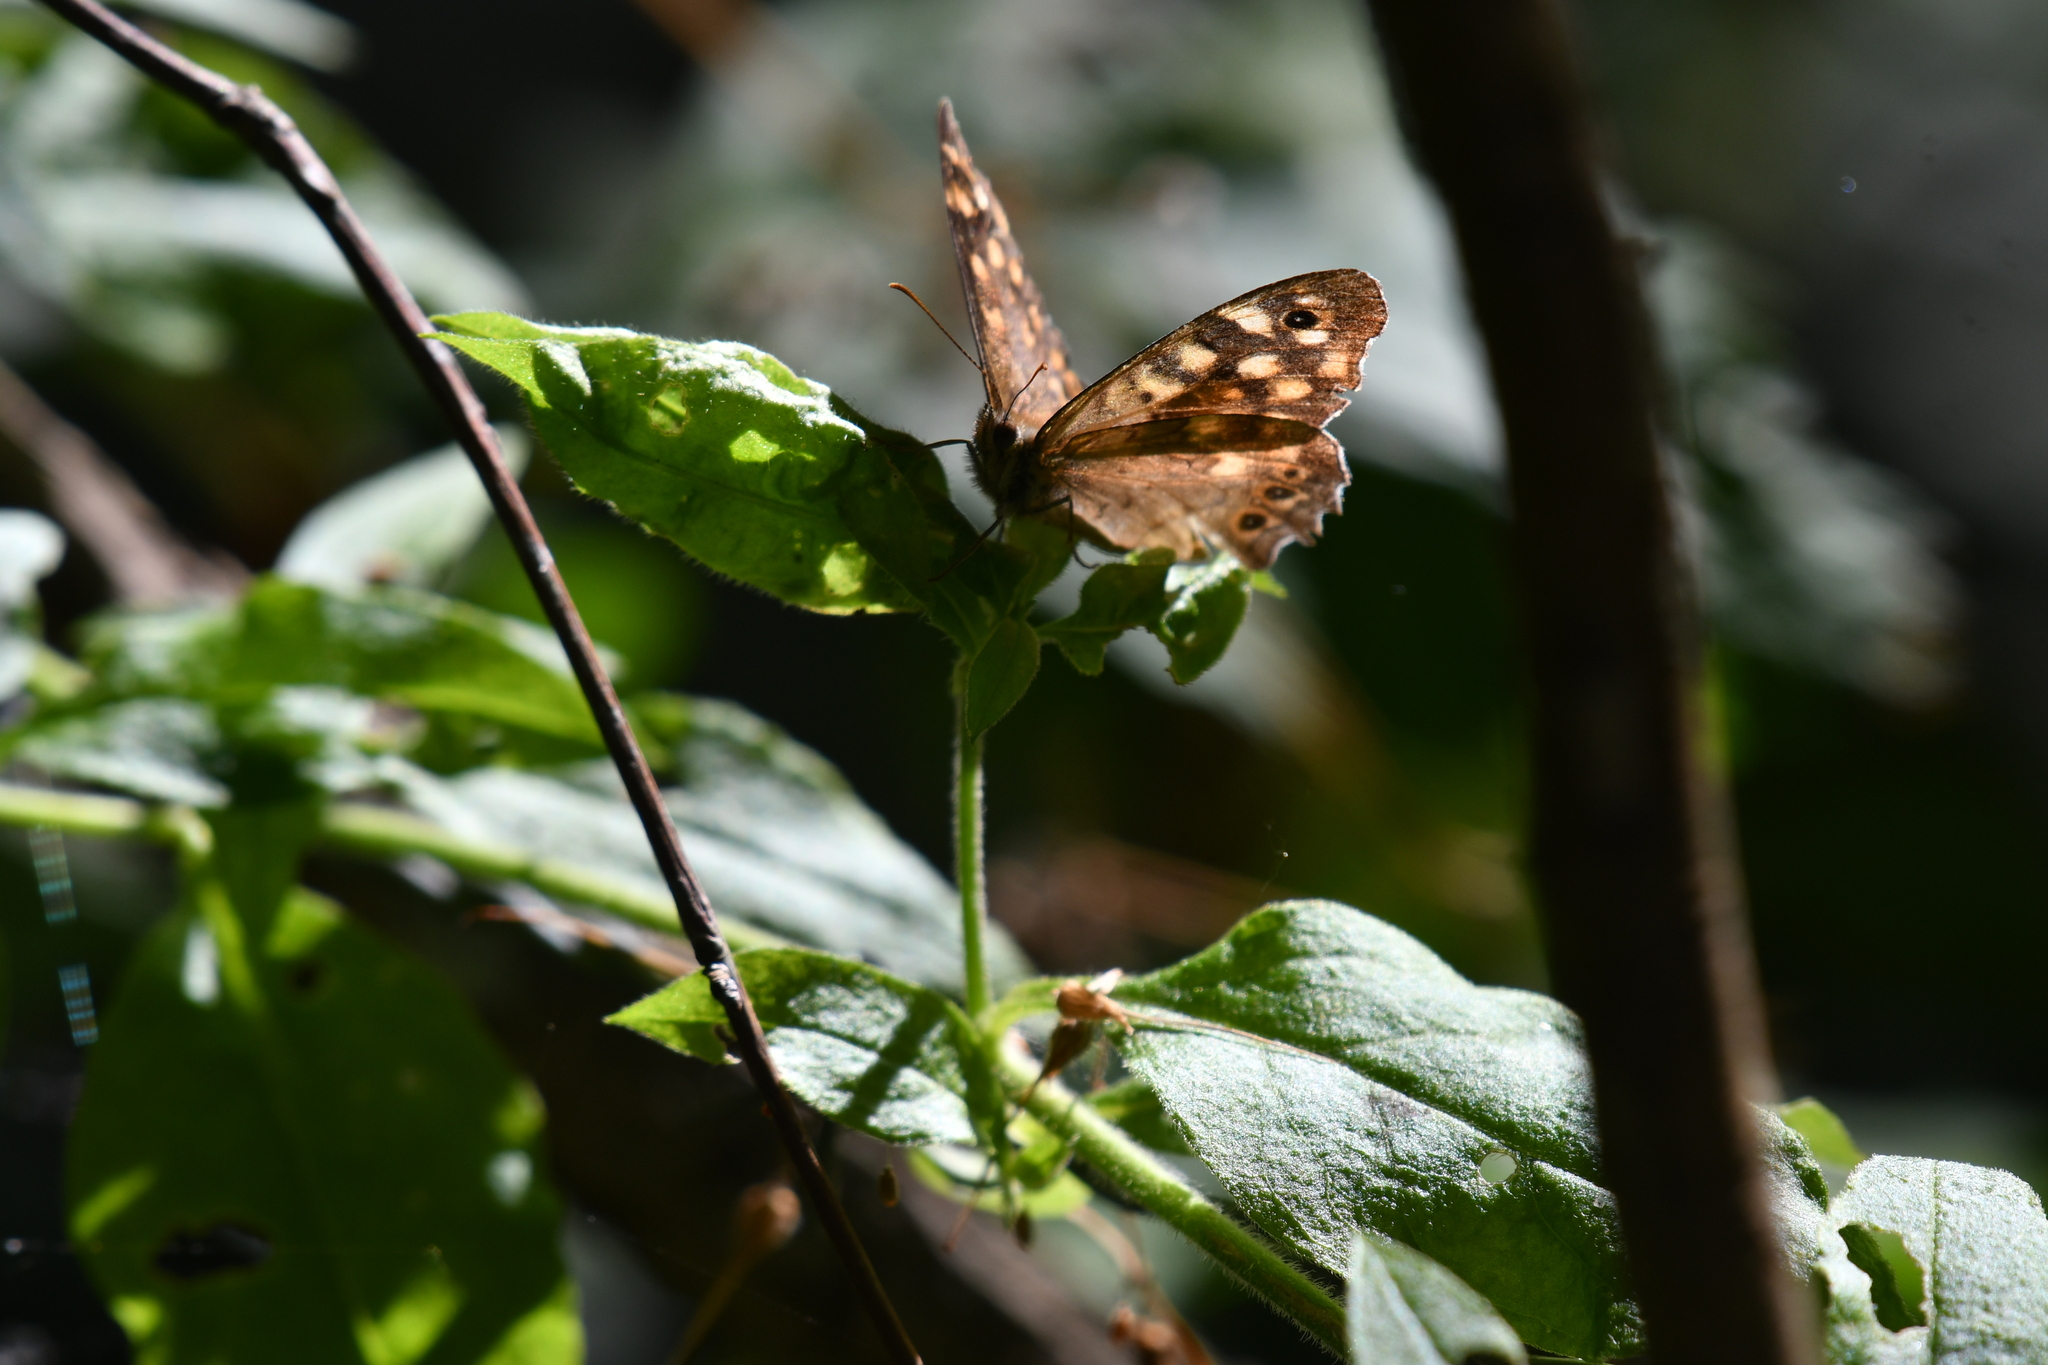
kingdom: Animalia
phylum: Arthropoda
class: Insecta
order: Lepidoptera
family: Nymphalidae
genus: Pararge
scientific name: Pararge aegeria
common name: Speckled wood
